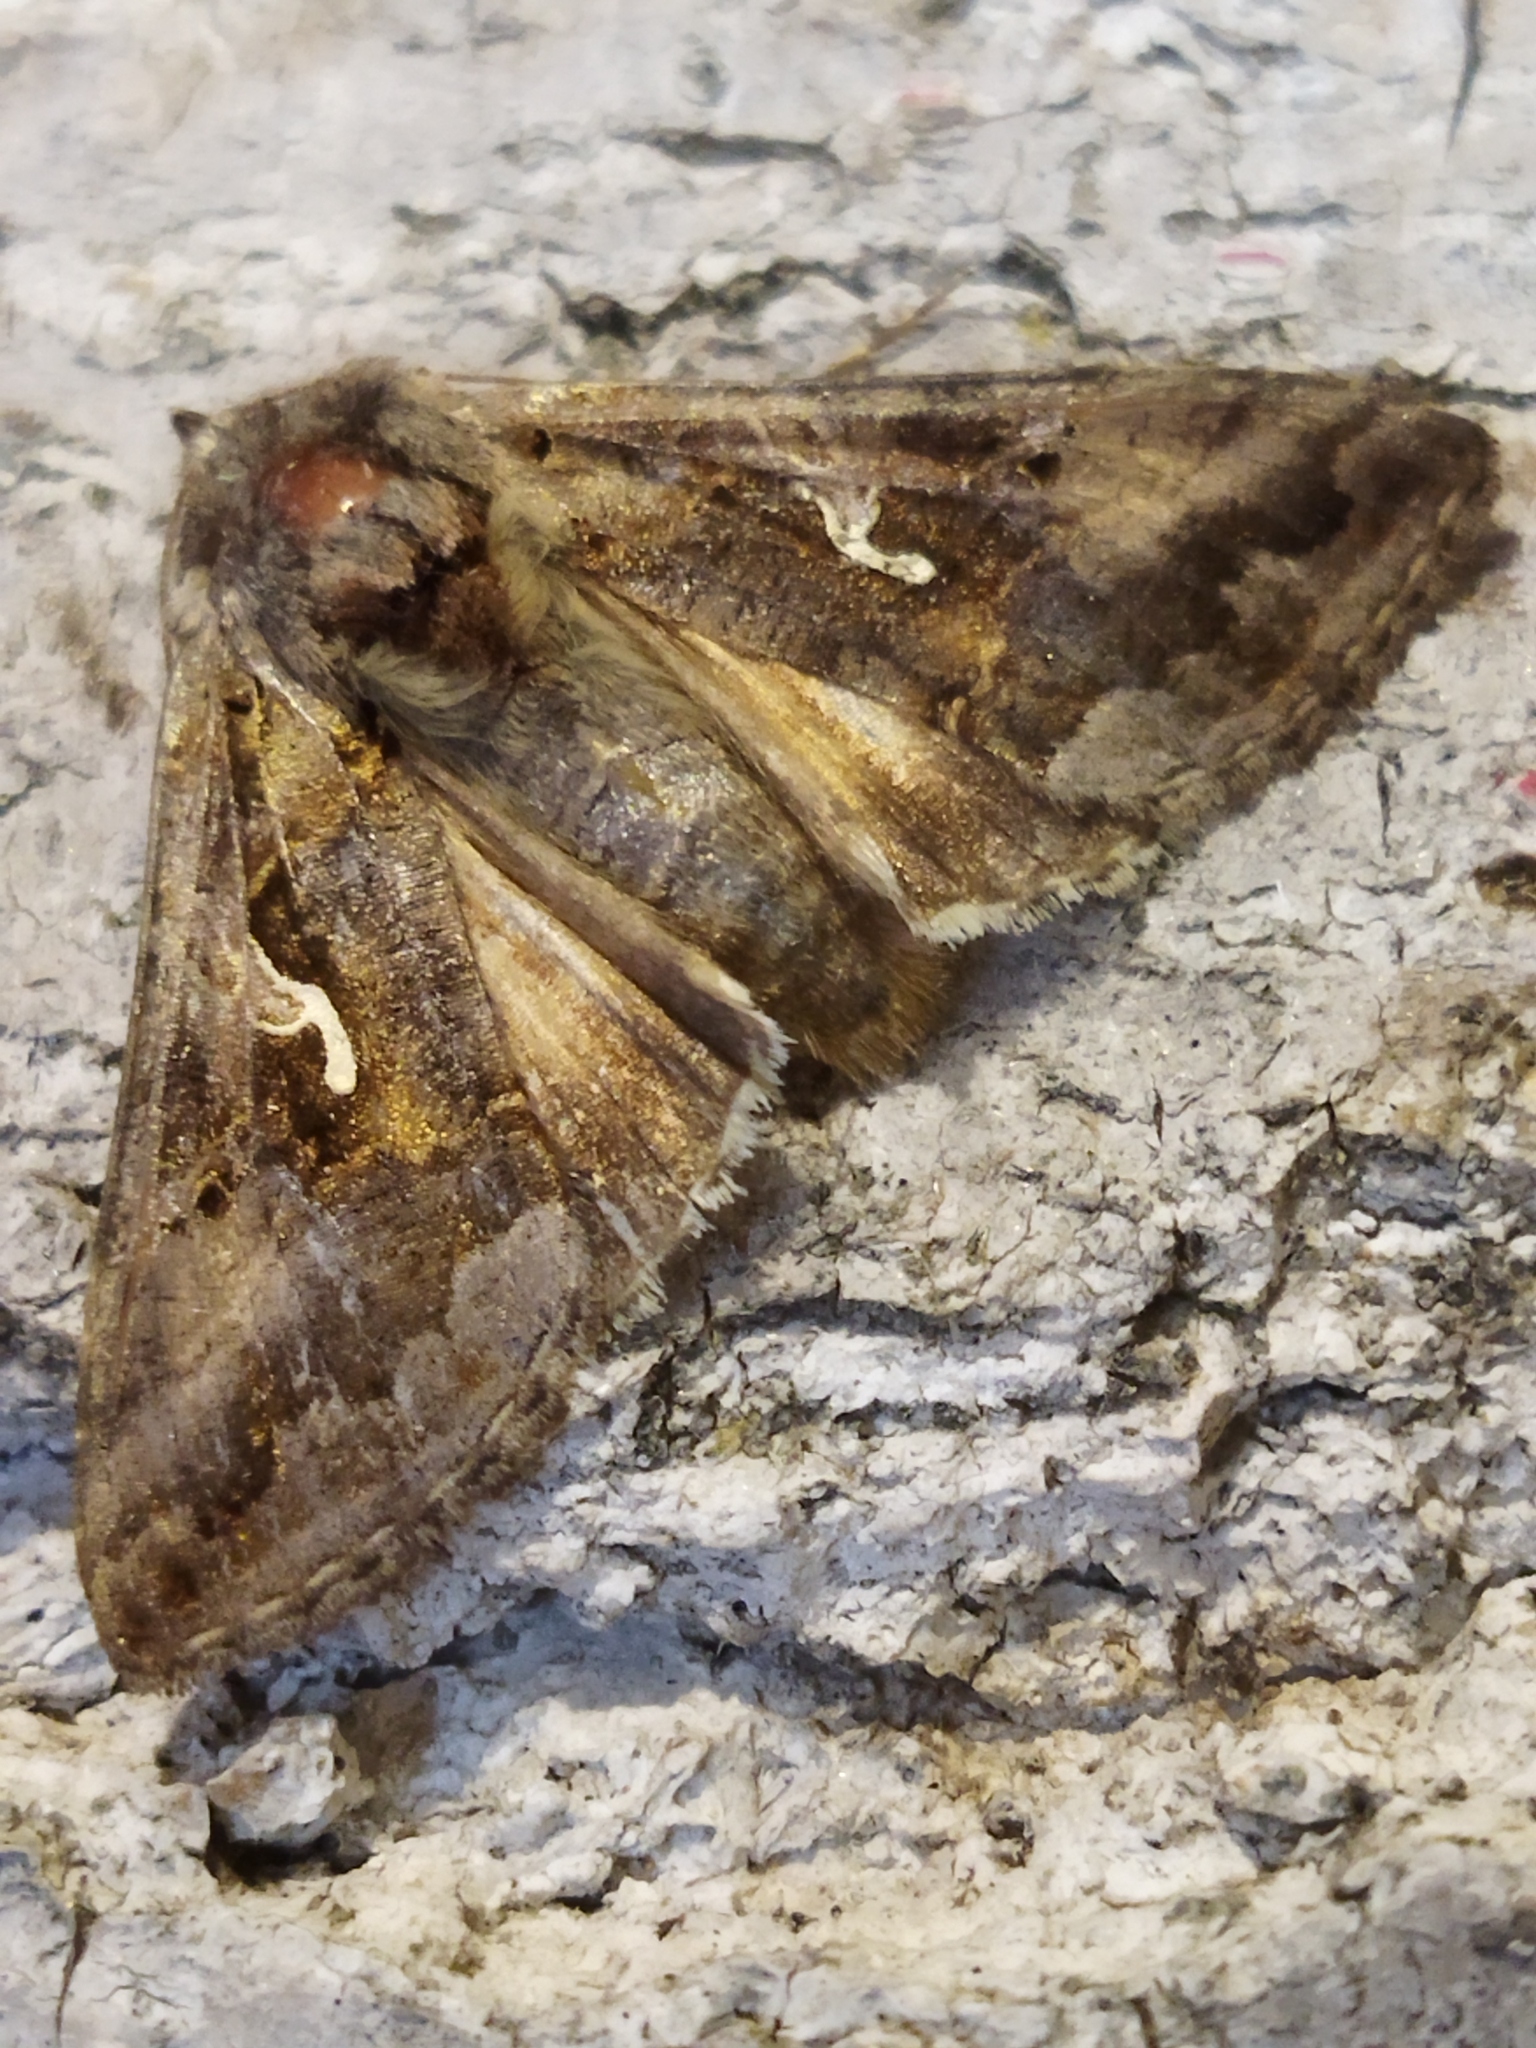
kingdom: Animalia
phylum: Arthropoda
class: Insecta
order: Lepidoptera
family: Noctuidae
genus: Autographa
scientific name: Autographa gamma
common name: Silver y
